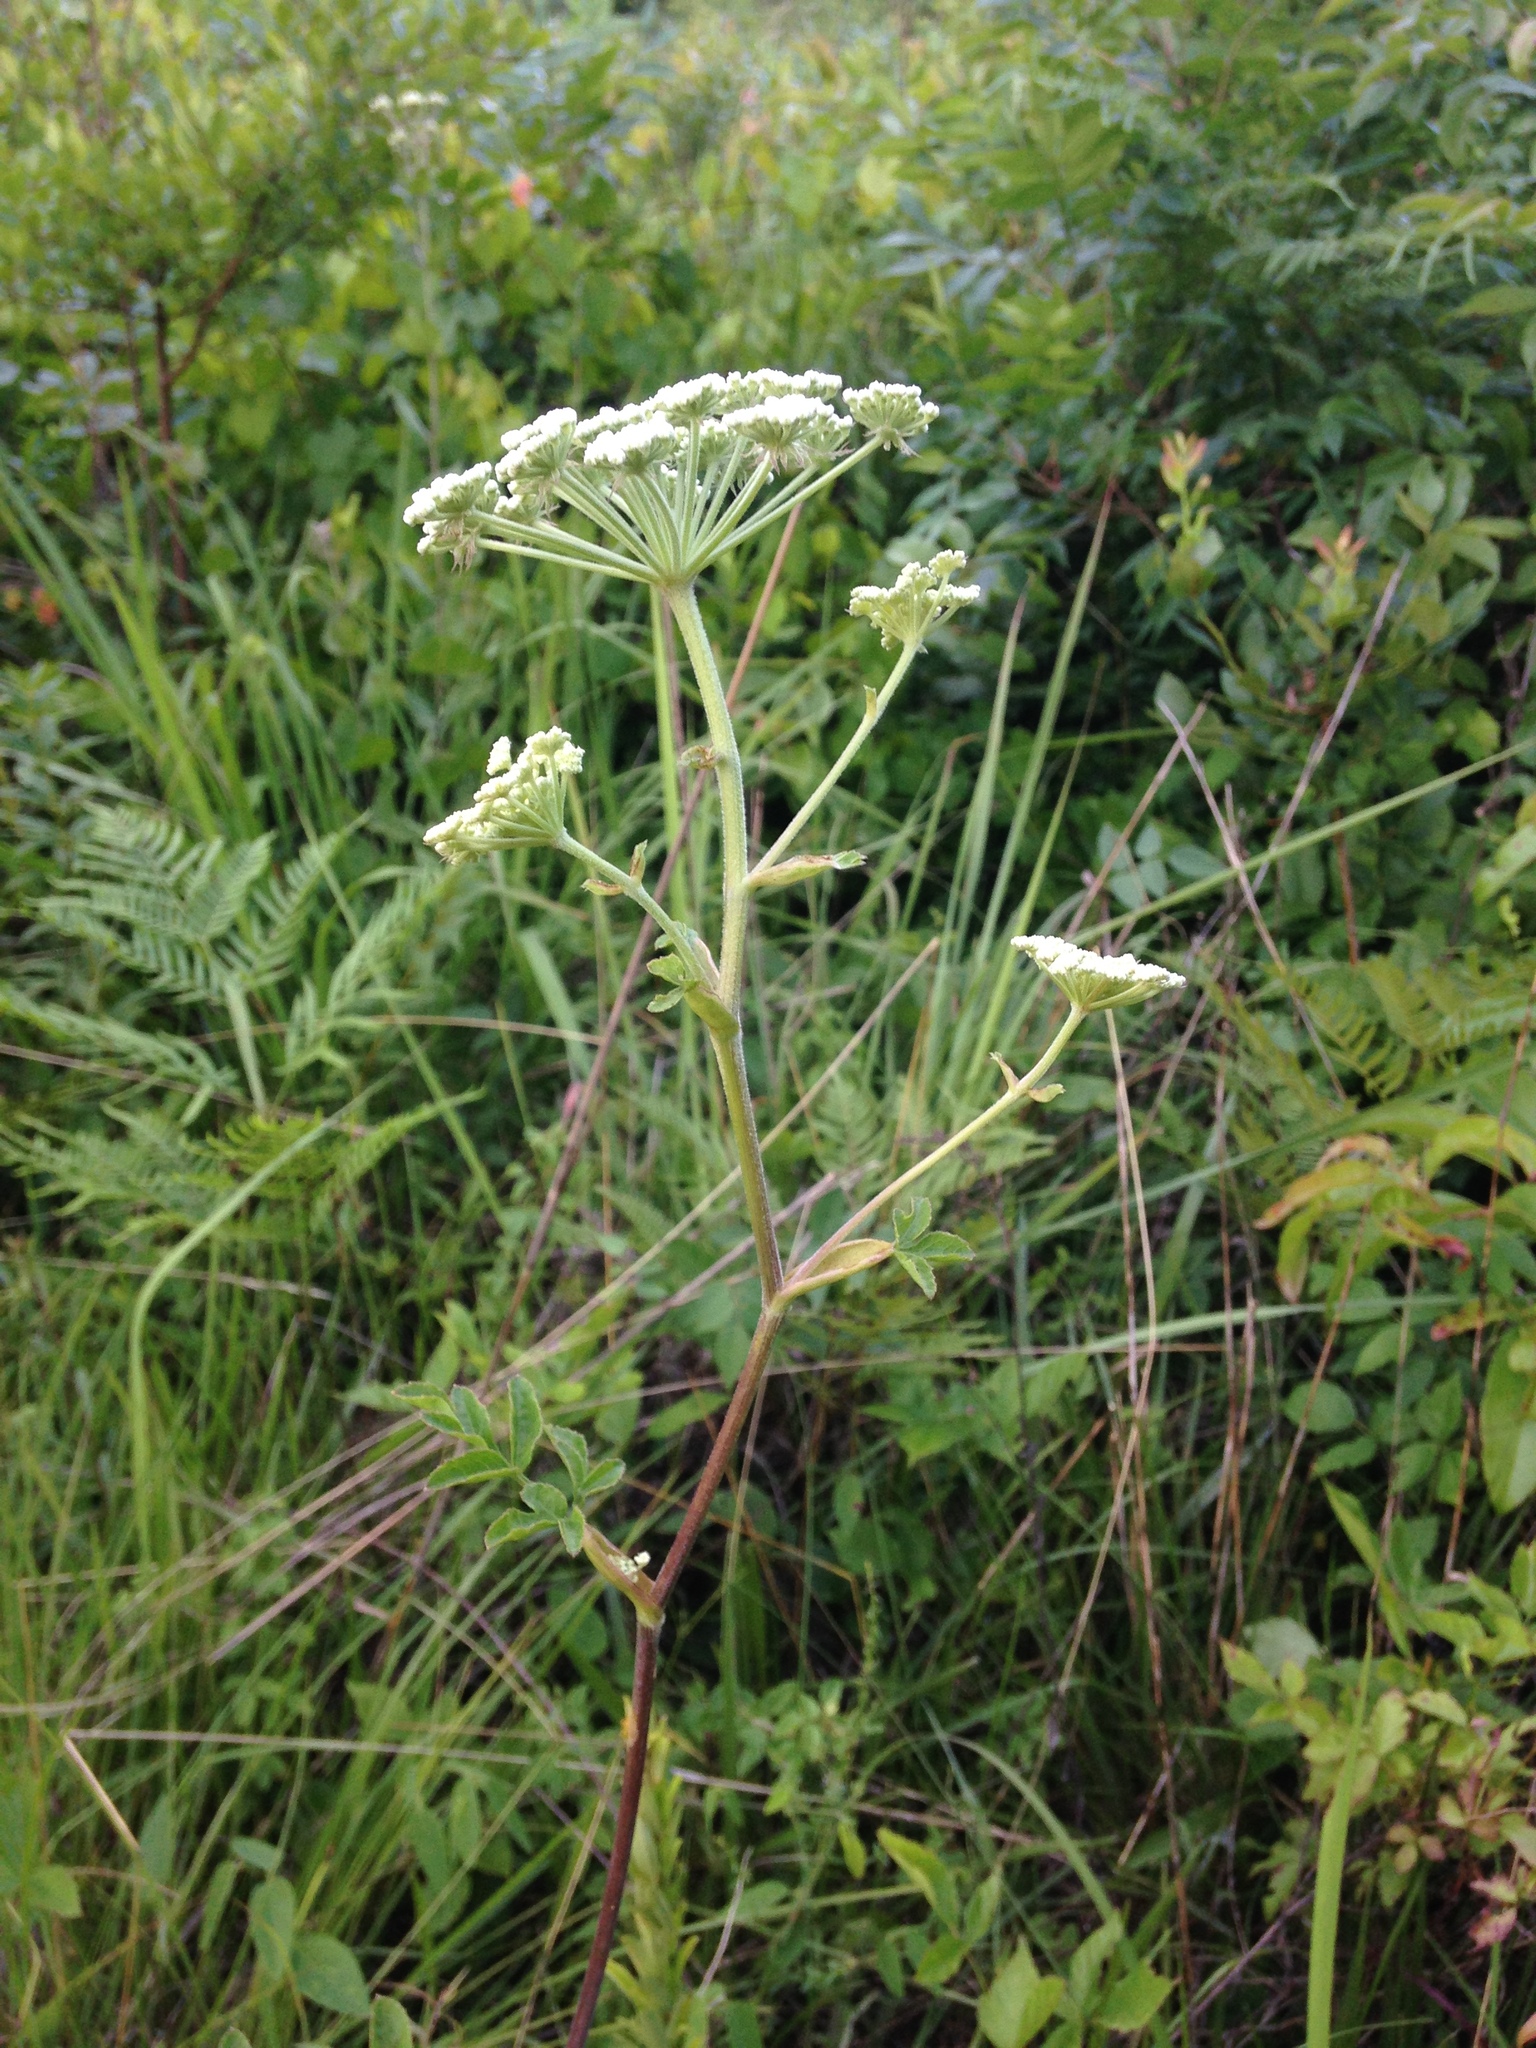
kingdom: Plantae
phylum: Tracheophyta
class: Magnoliopsida
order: Apiales
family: Apiaceae
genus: Angelica
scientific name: Angelica venenosa
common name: Hairy angelica
